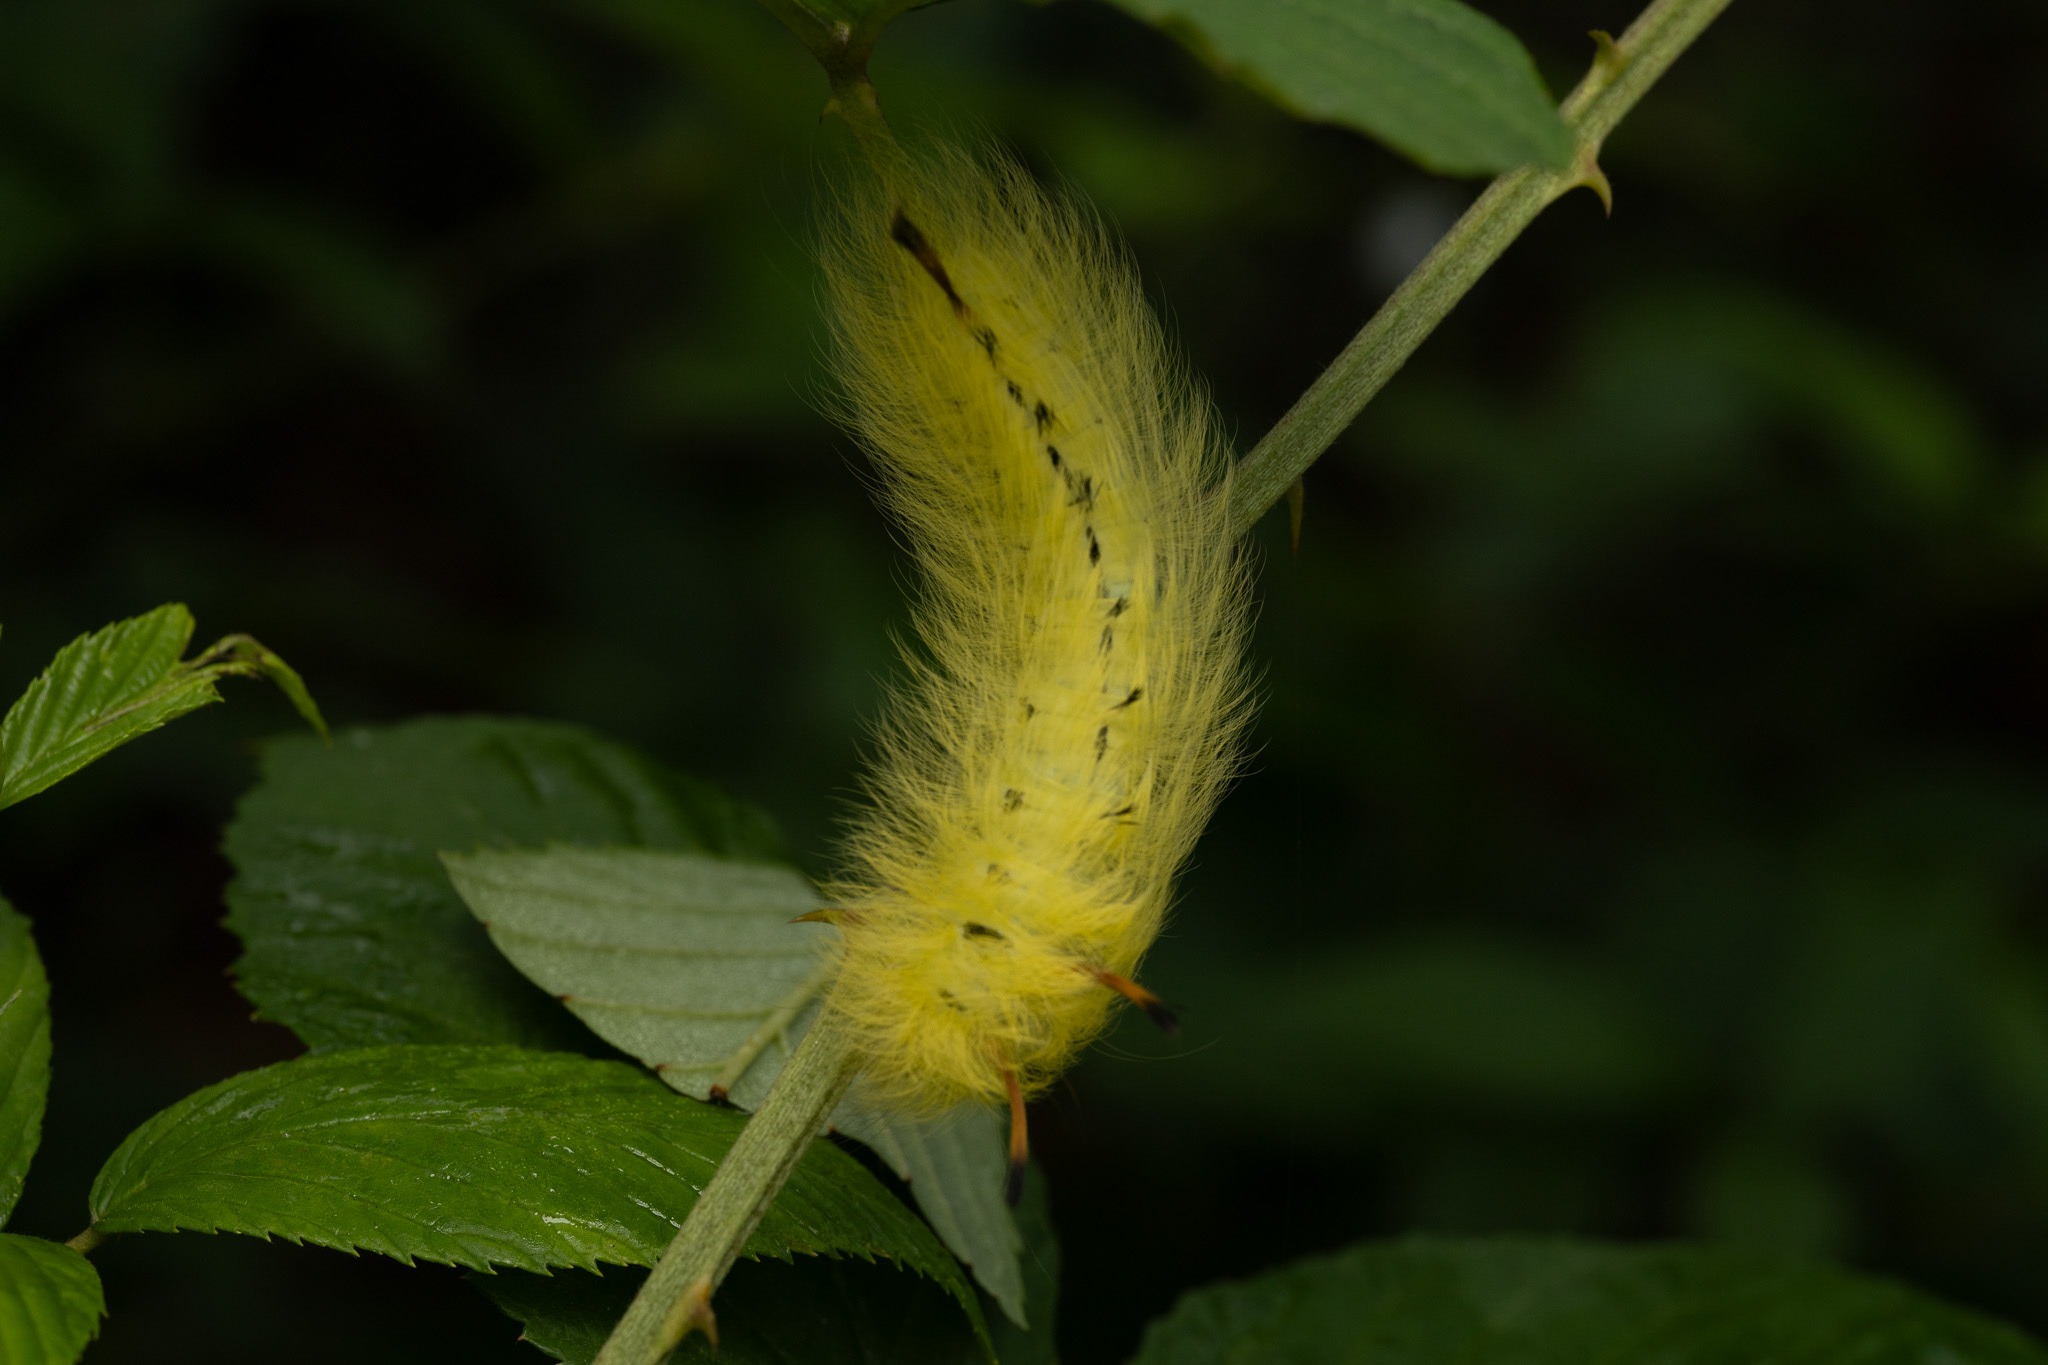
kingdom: Animalia
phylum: Arthropoda
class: Insecta
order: Lepidoptera
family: Apatelodidae
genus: Hygrochroa
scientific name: Hygrochroa Apatelodes torrefacta
